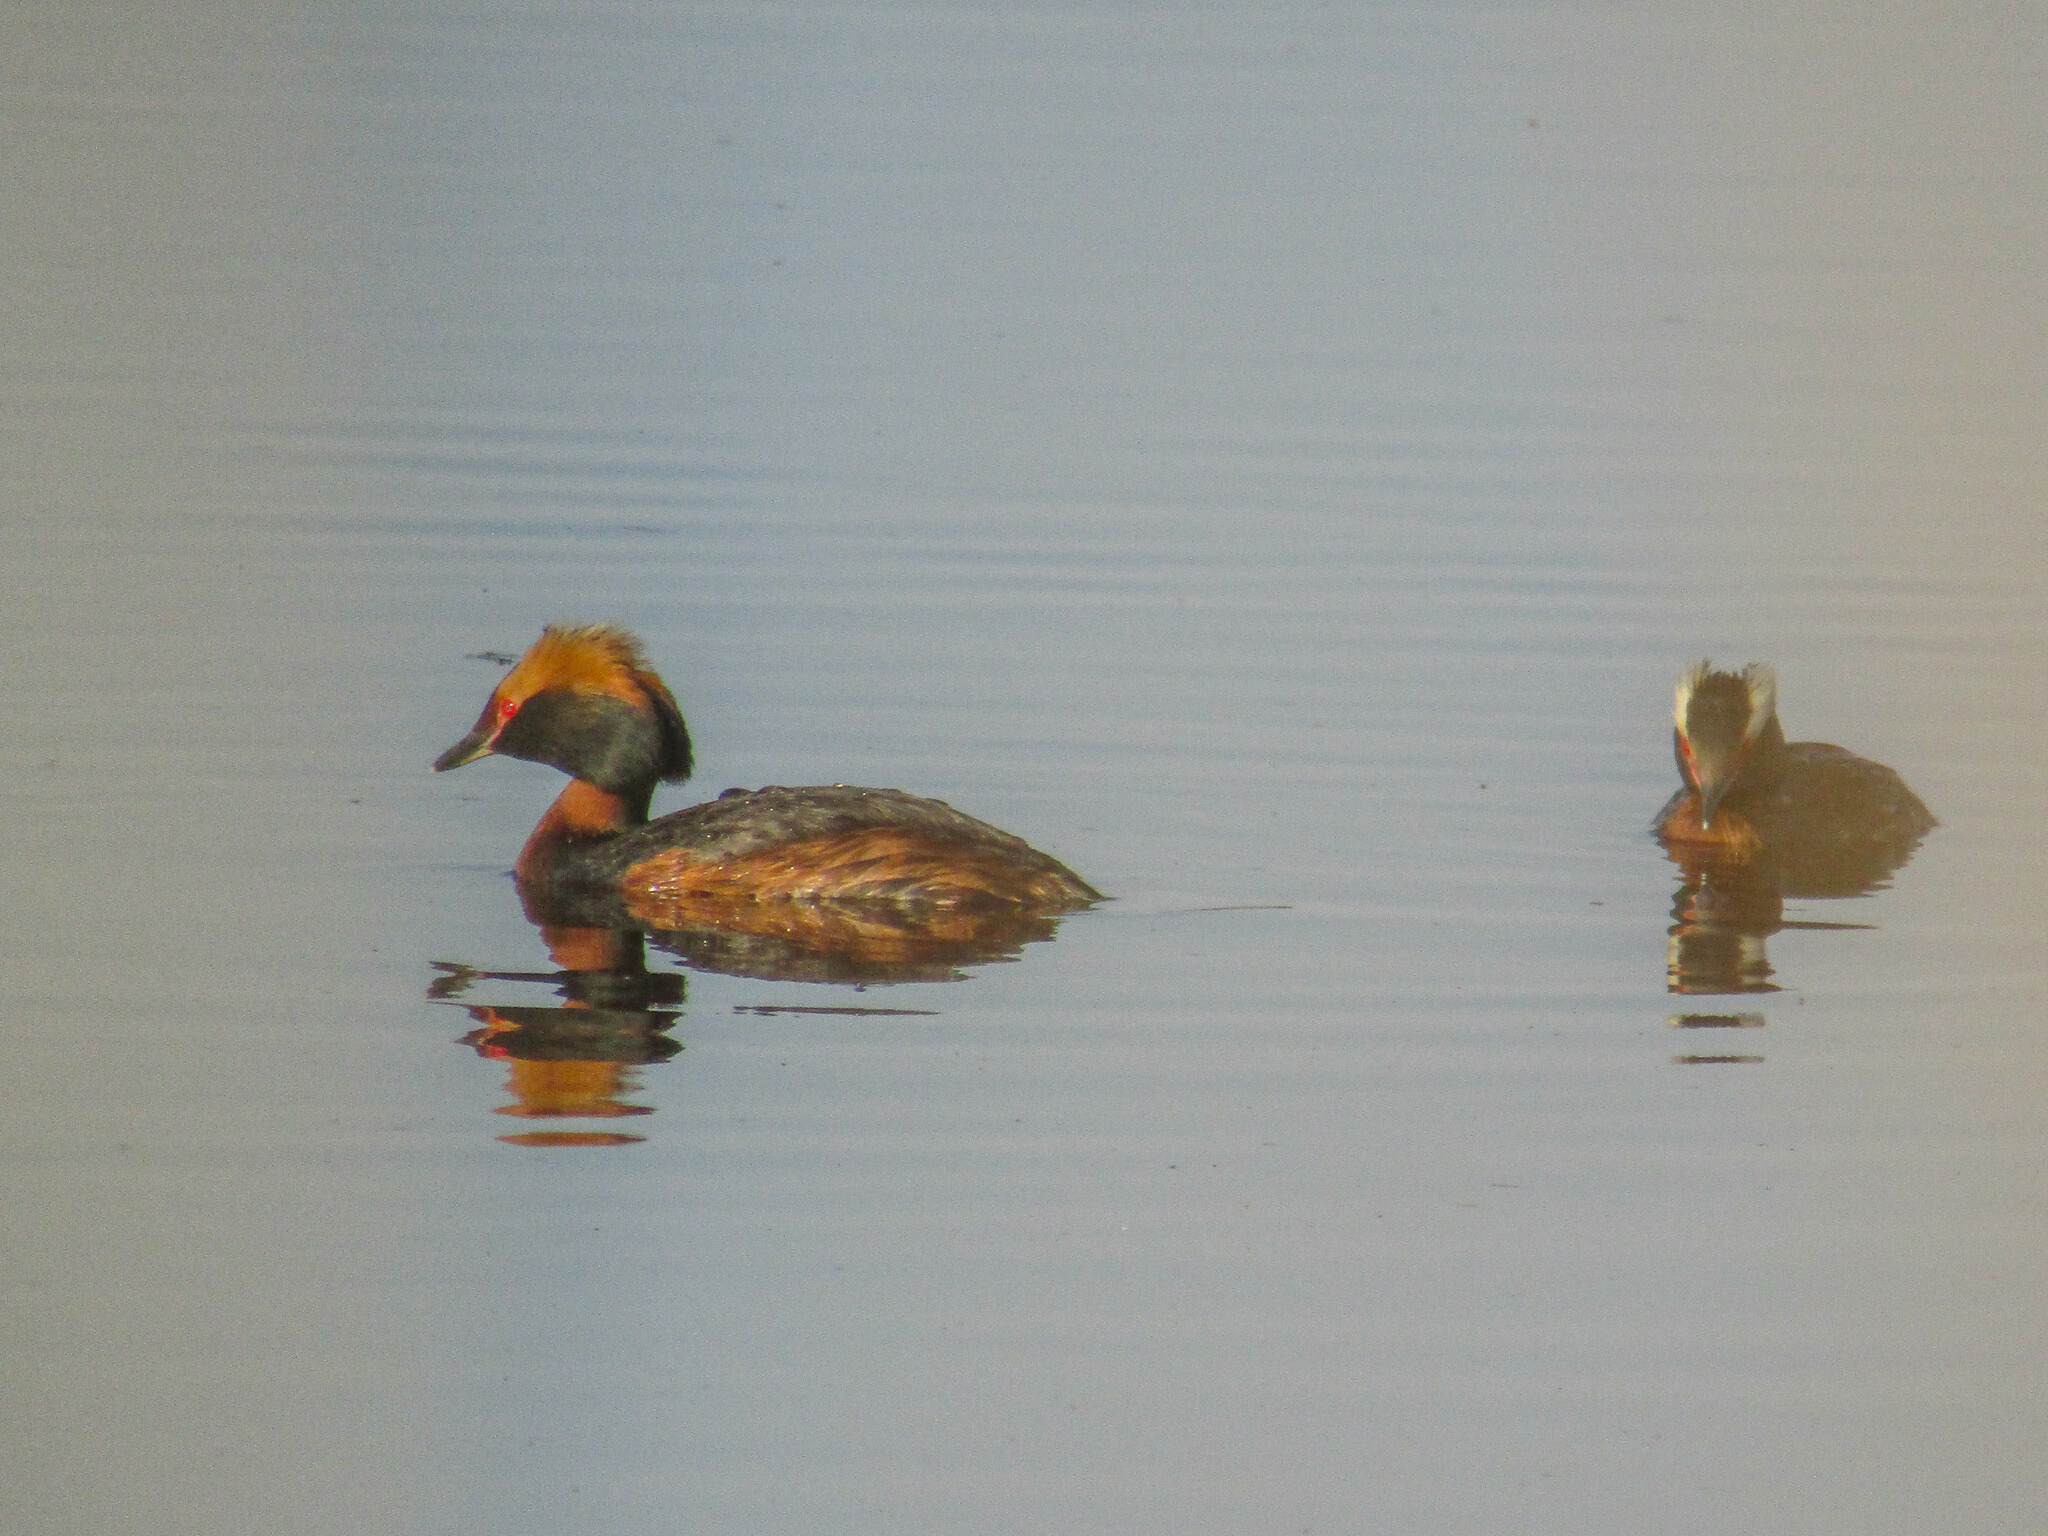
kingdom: Animalia
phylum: Chordata
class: Aves
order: Podicipediformes
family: Podicipedidae
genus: Podiceps
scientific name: Podiceps auritus
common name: Horned grebe
